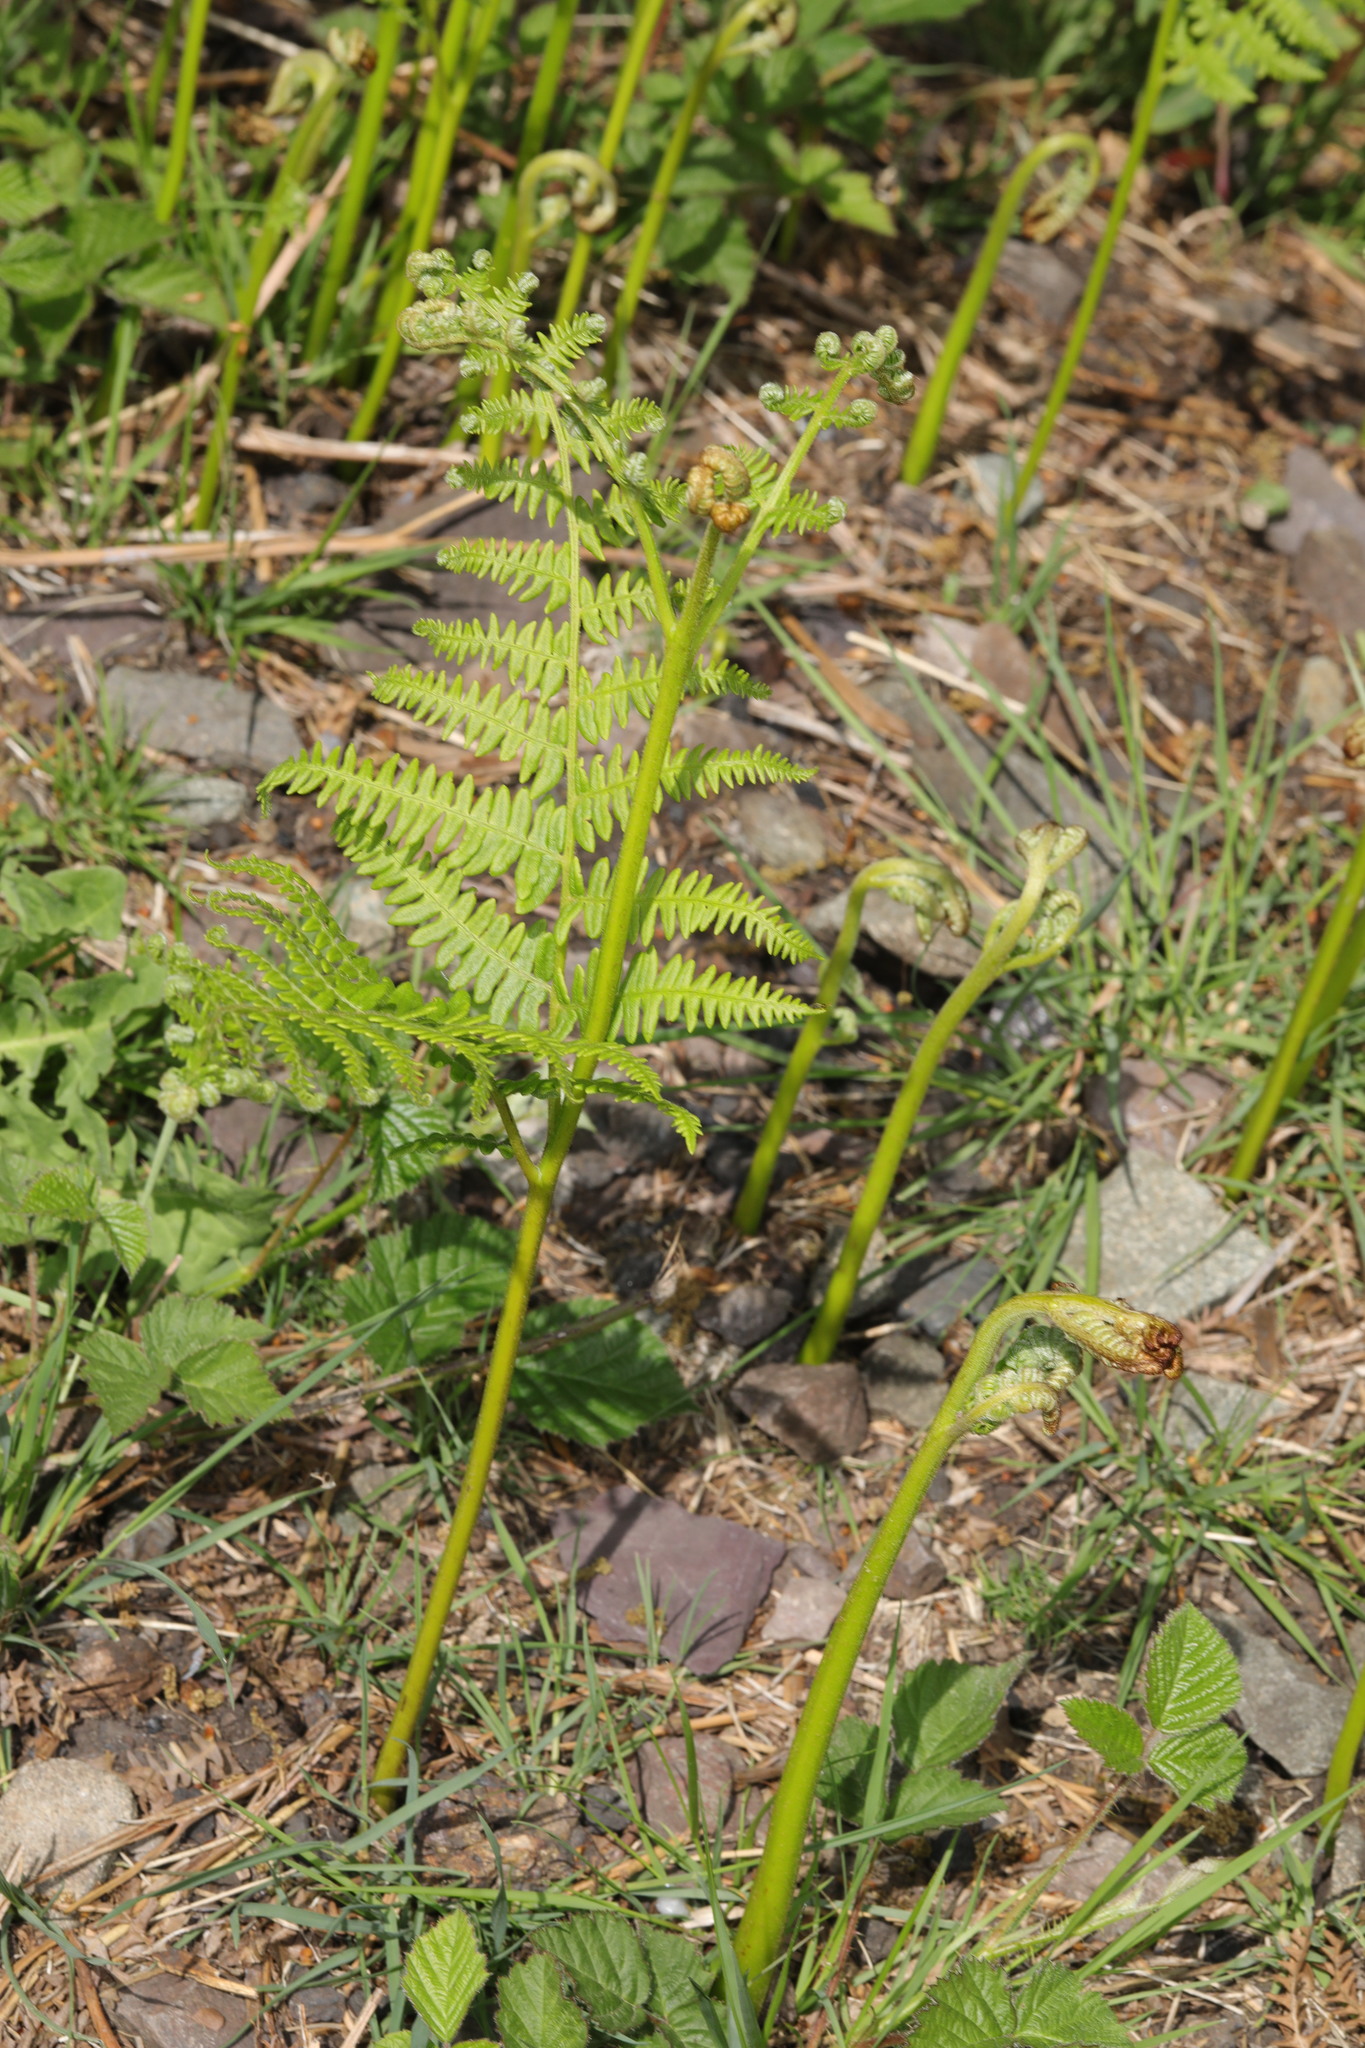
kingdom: Plantae
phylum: Tracheophyta
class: Polypodiopsida
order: Polypodiales
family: Dennstaedtiaceae
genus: Pteridium
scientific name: Pteridium aquilinum
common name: Bracken
